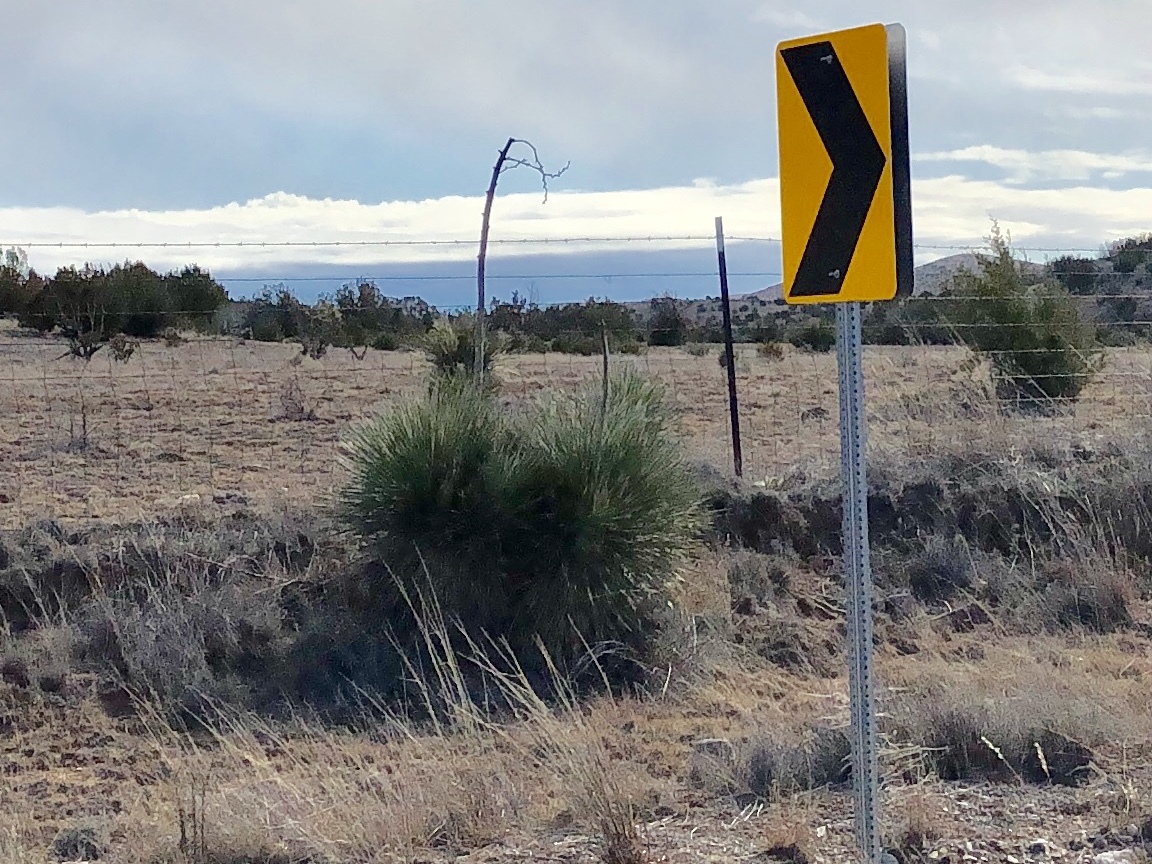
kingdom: Plantae
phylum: Tracheophyta
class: Liliopsida
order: Asparagales
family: Asparagaceae
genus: Yucca
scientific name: Yucca elata
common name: Palmella
